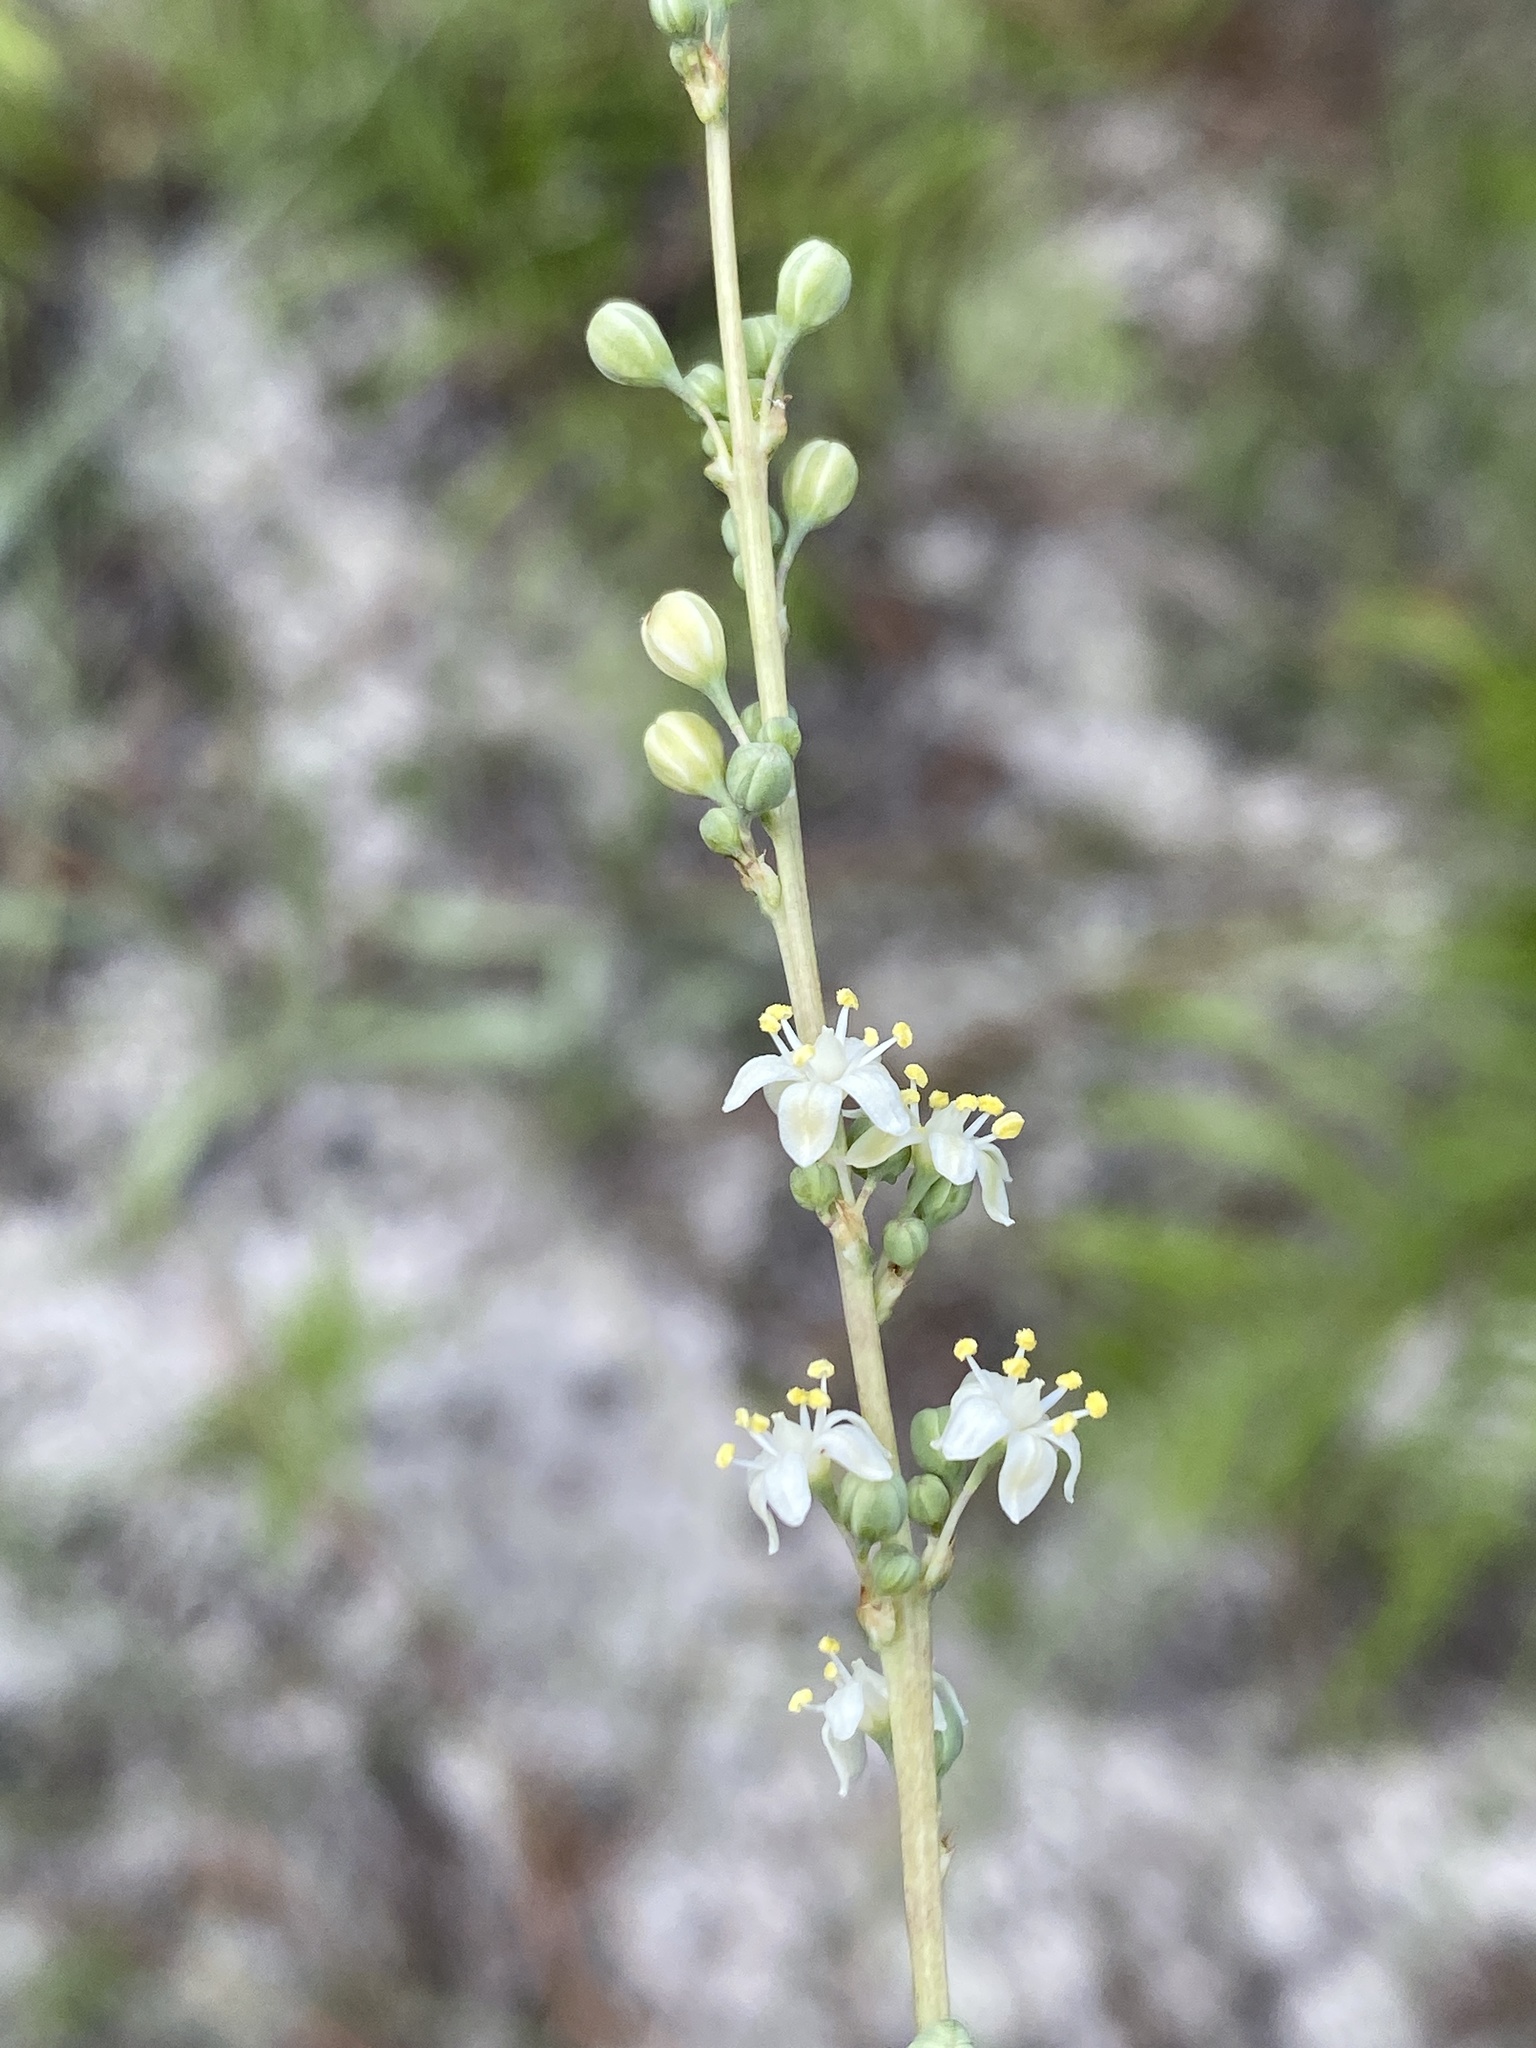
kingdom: Plantae
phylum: Tracheophyta
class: Liliopsida
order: Asparagales
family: Asparagaceae
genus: Nolina
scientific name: Nolina atopocarpa
